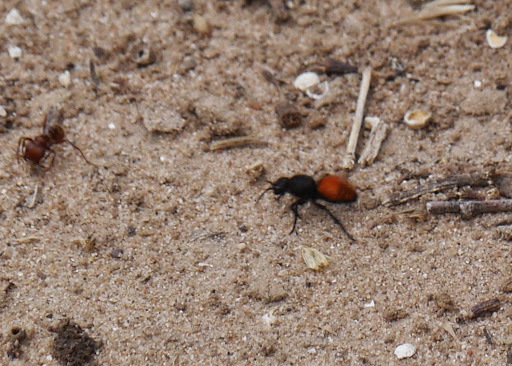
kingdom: Animalia
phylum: Arthropoda
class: Insecta
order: Hymenoptera
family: Mutillidae
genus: Dasymutilla
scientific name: Dasymutilla
